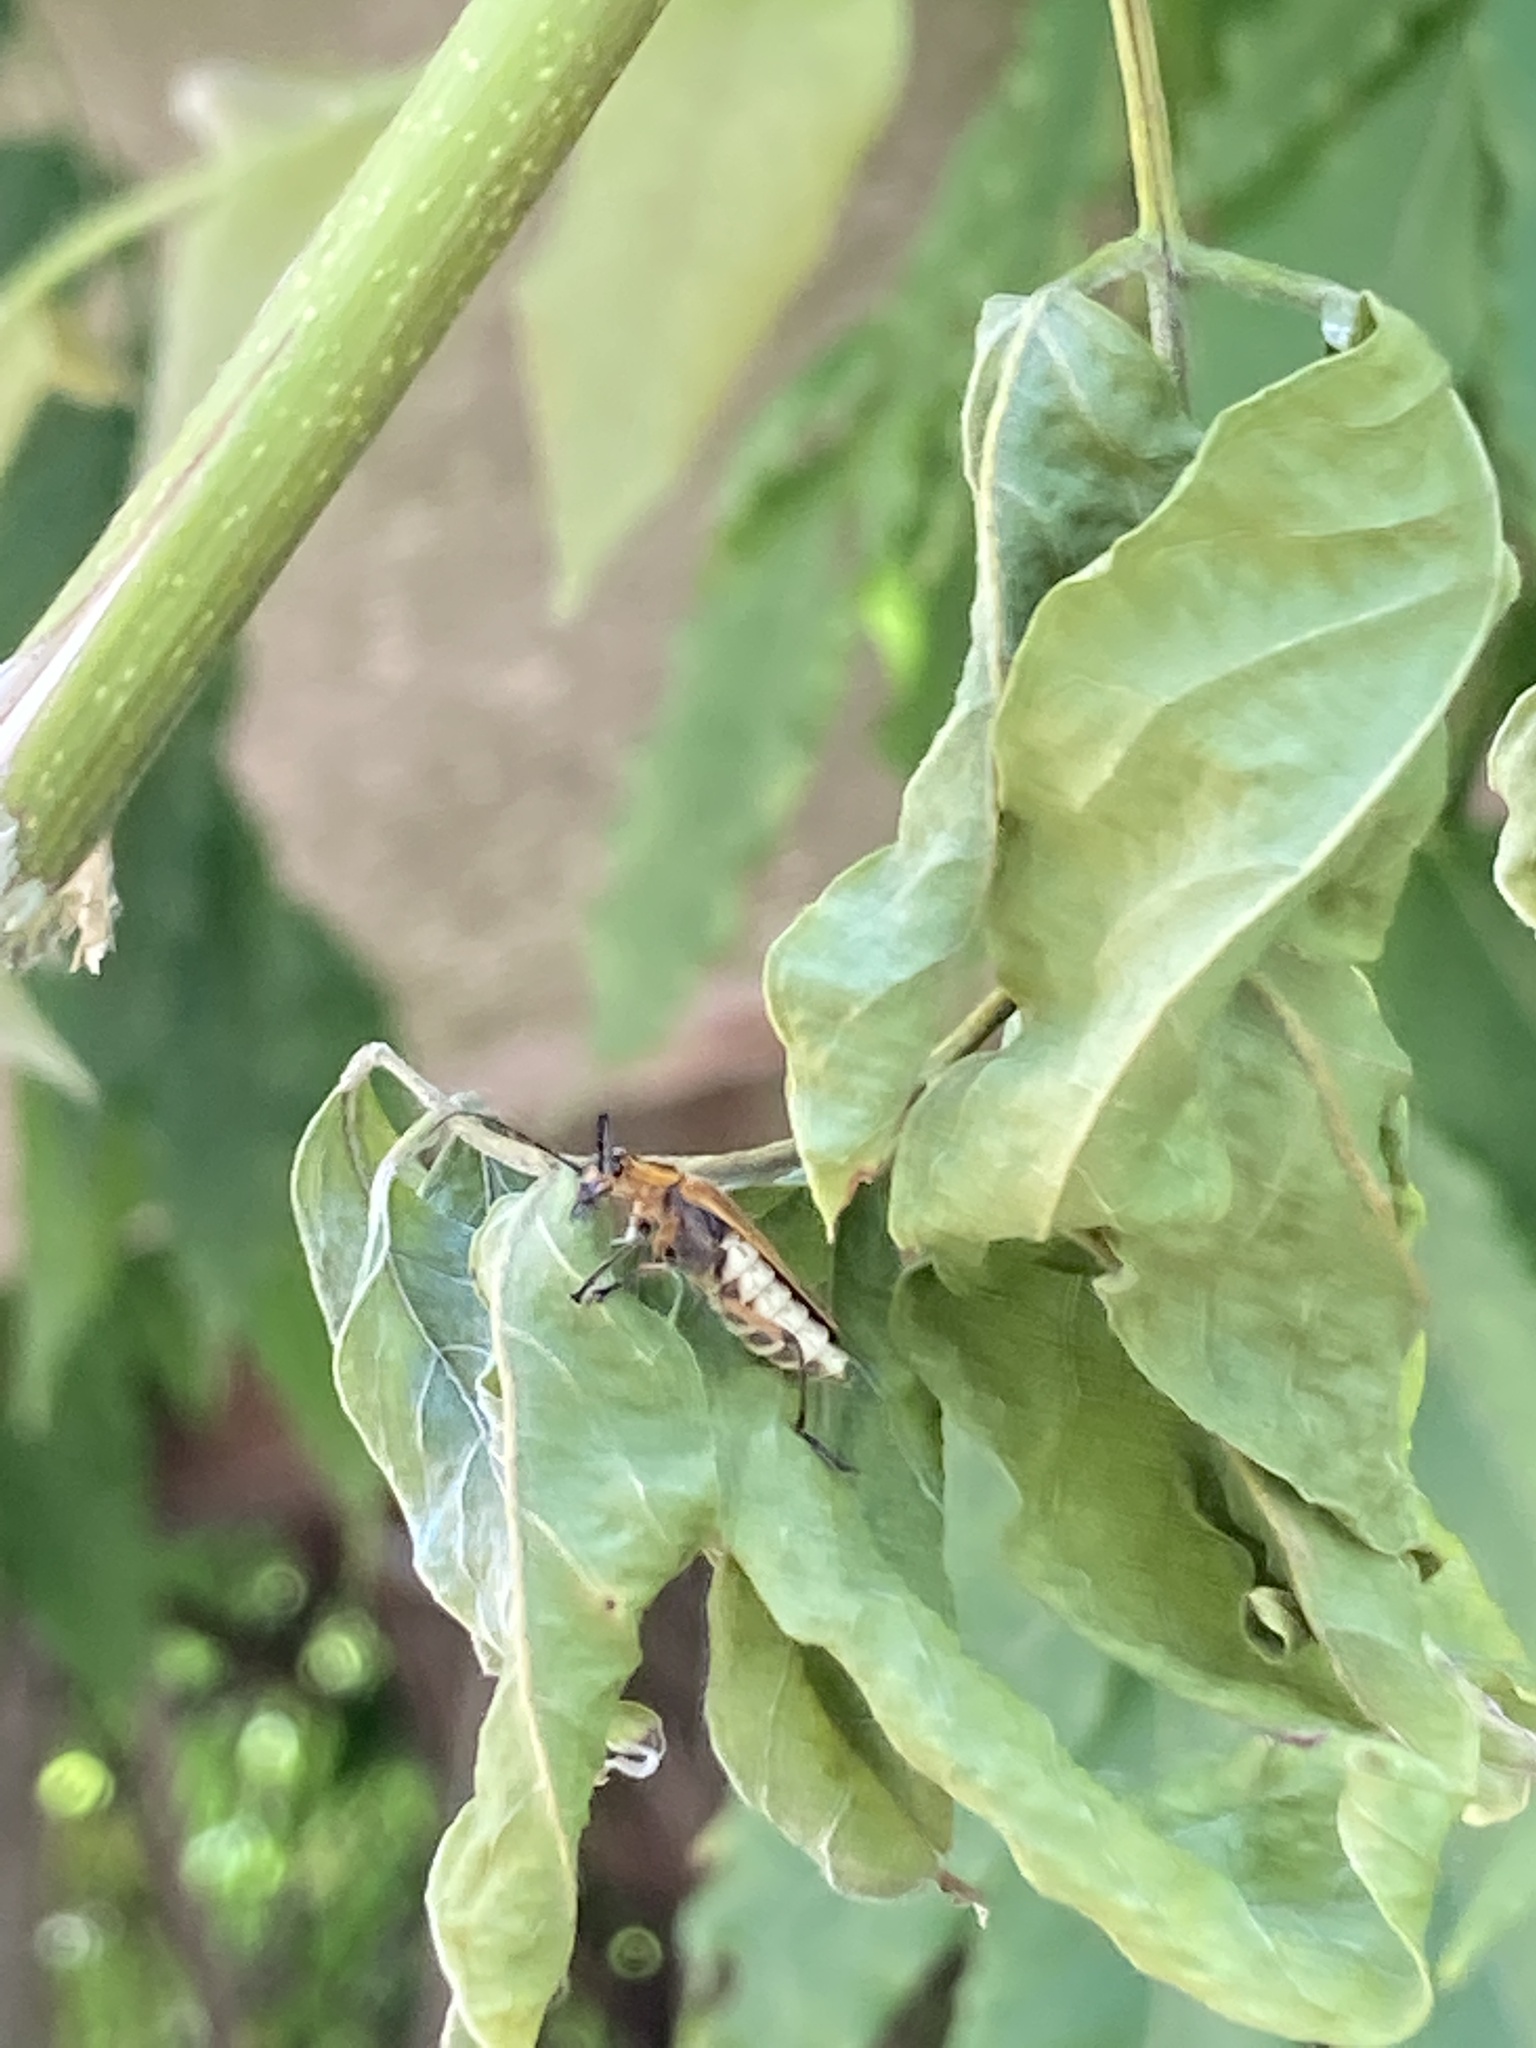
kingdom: Animalia
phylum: Arthropoda
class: Insecta
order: Coleoptera
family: Cantharidae
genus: Chauliognathus
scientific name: Chauliognathus marginatus
